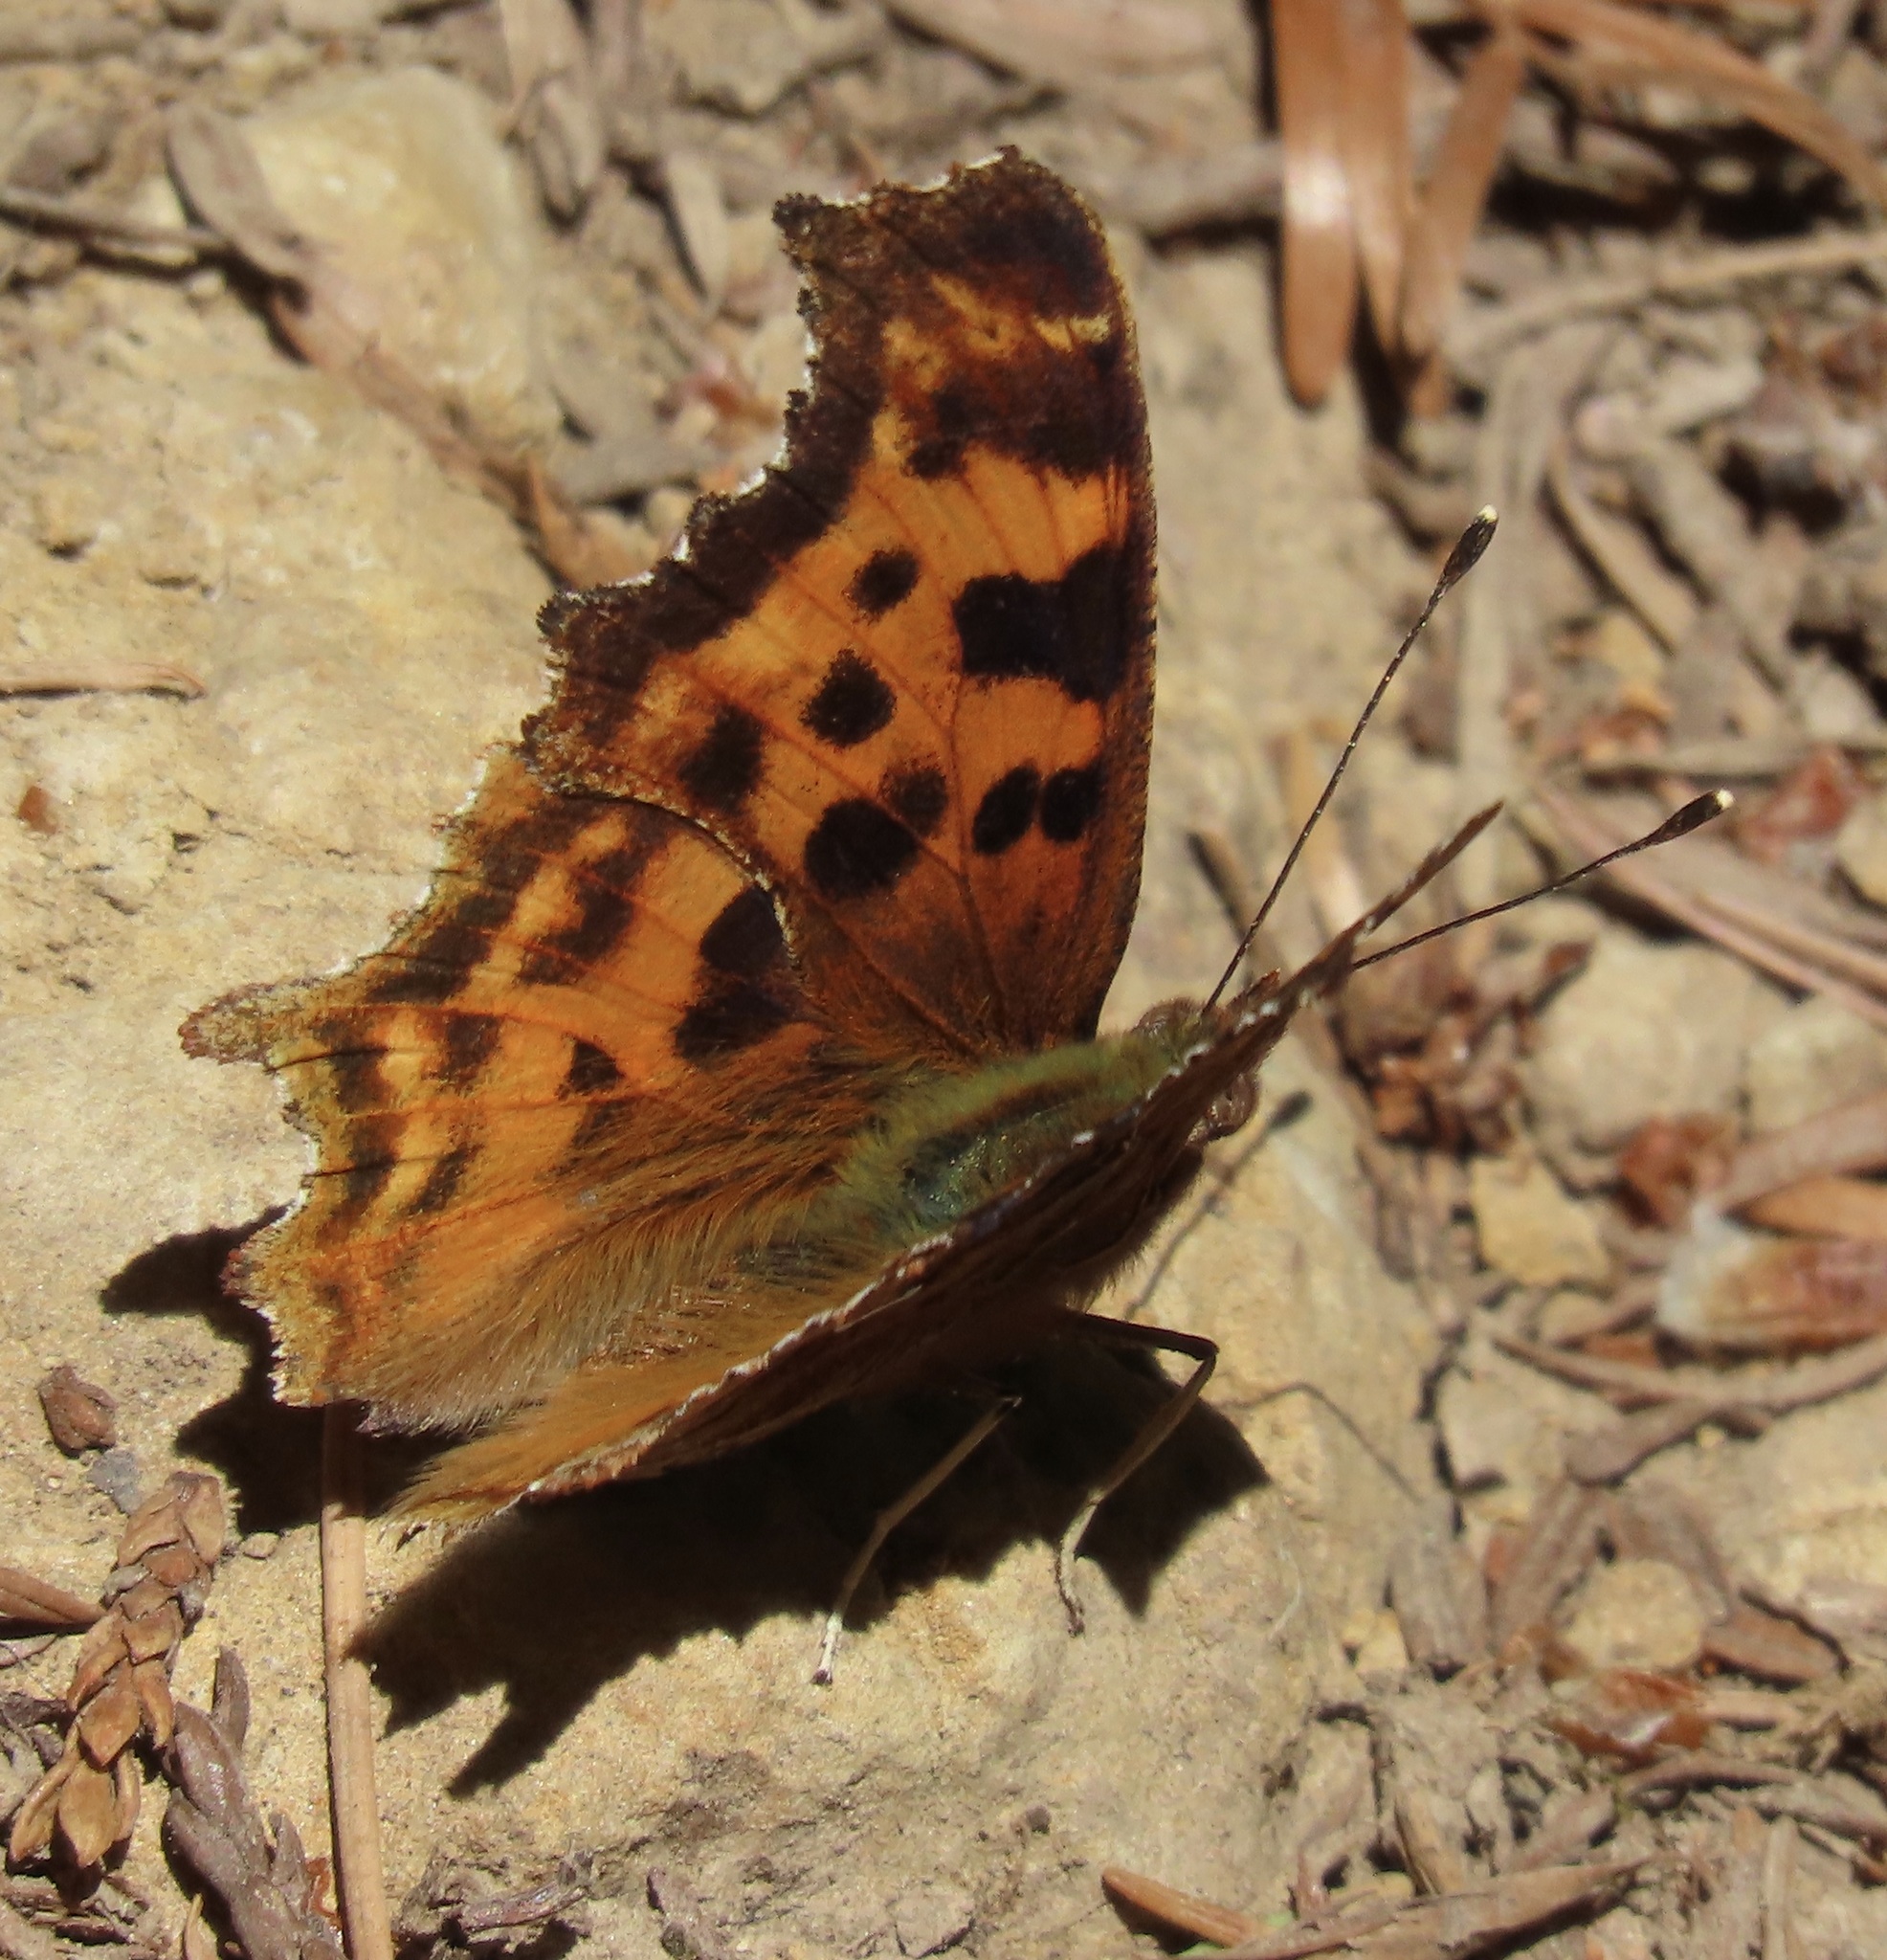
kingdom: Animalia
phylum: Arthropoda
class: Insecta
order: Lepidoptera
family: Nymphalidae
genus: Polygonia
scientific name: Polygonia satyrus
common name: Satyr angle wing
